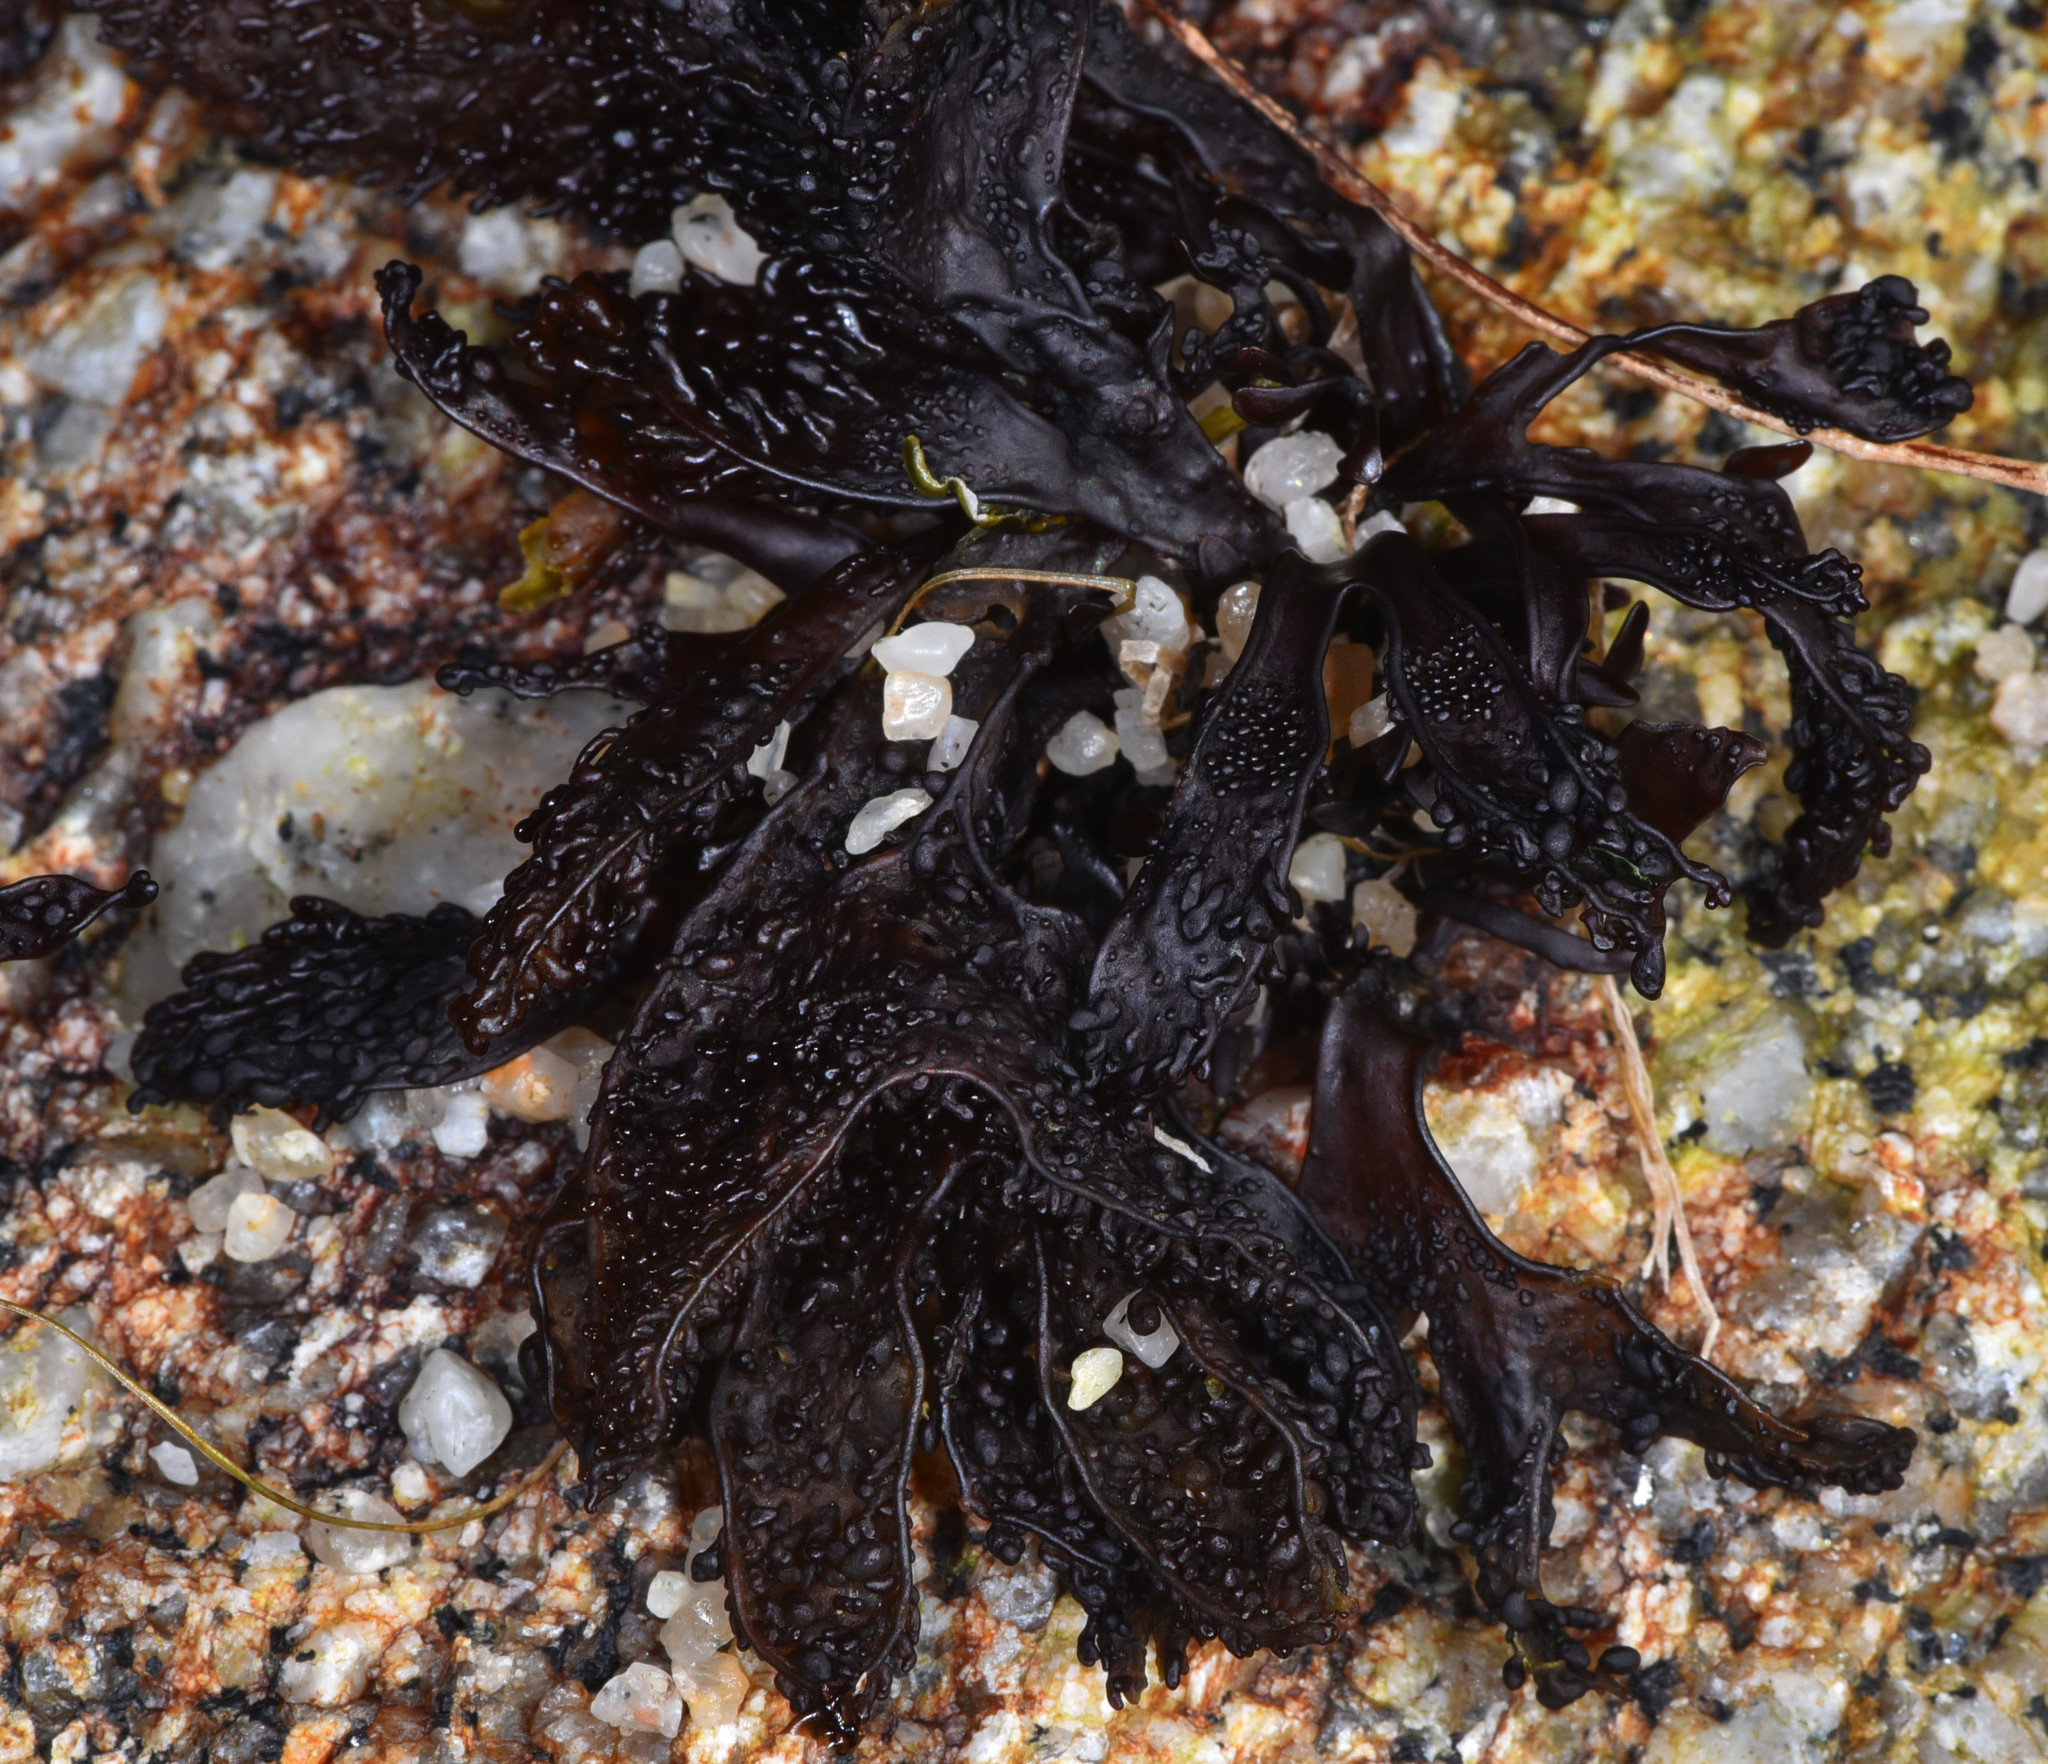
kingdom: Plantae
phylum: Rhodophyta
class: Florideophyceae
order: Gigartinales
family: Phyllophoraceae
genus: Mastocarpus
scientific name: Mastocarpus jardinii
